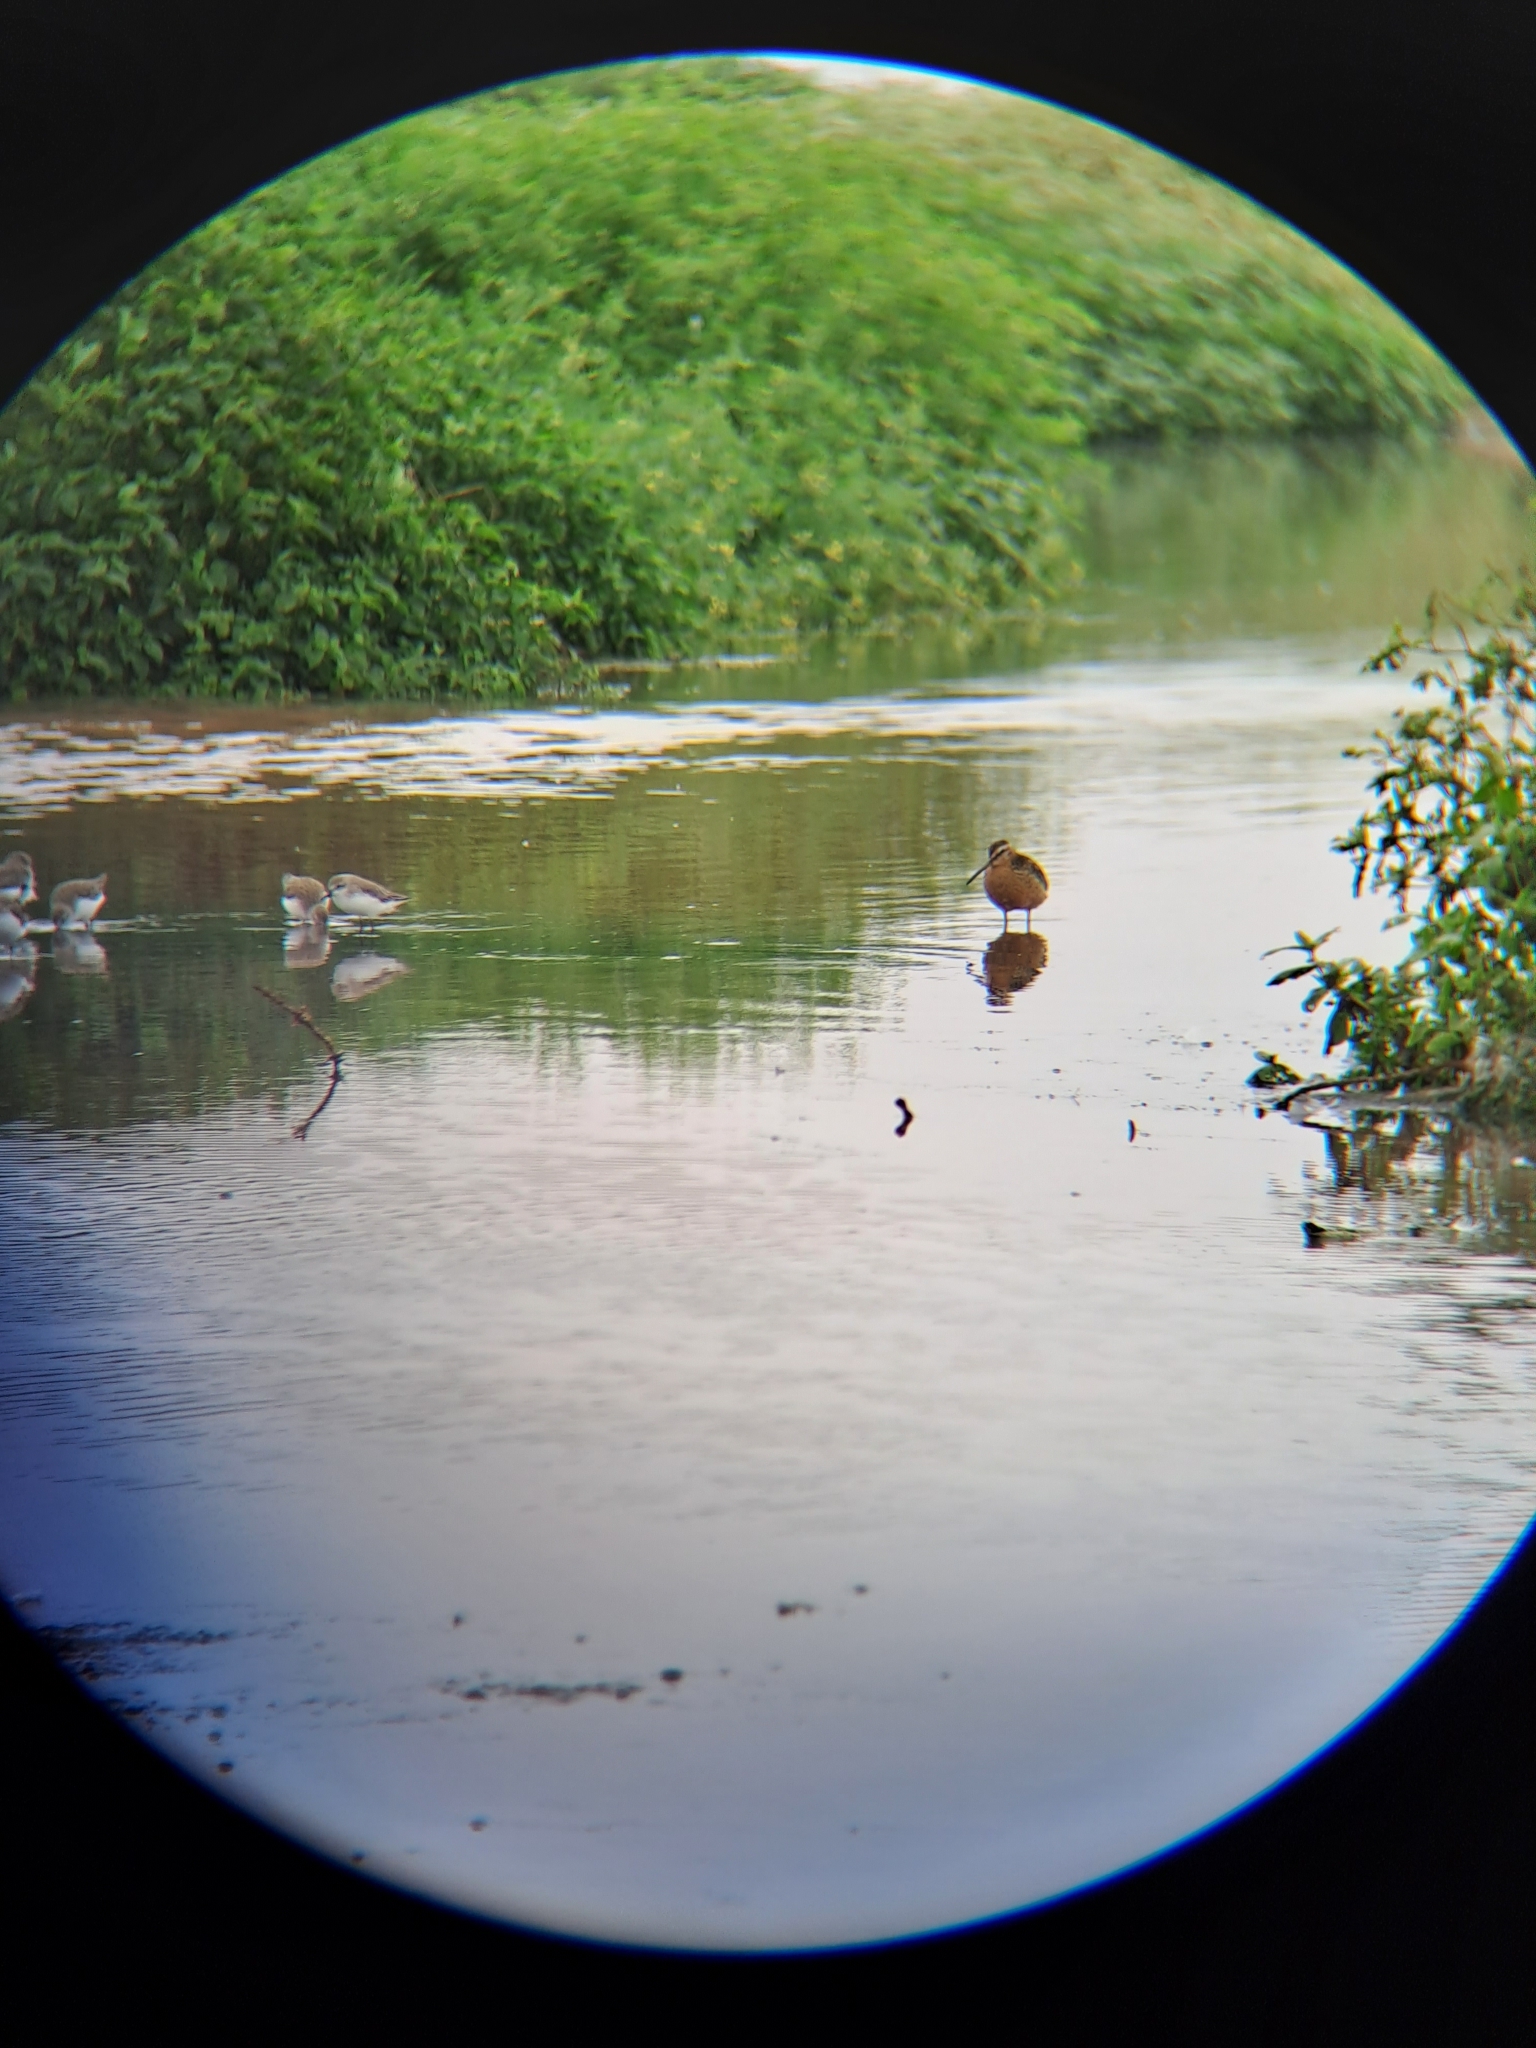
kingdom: Animalia
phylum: Chordata
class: Aves
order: Charadriiformes
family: Scolopacidae
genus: Limnodromus
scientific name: Limnodromus griseus
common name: Short-billed dowitcher
